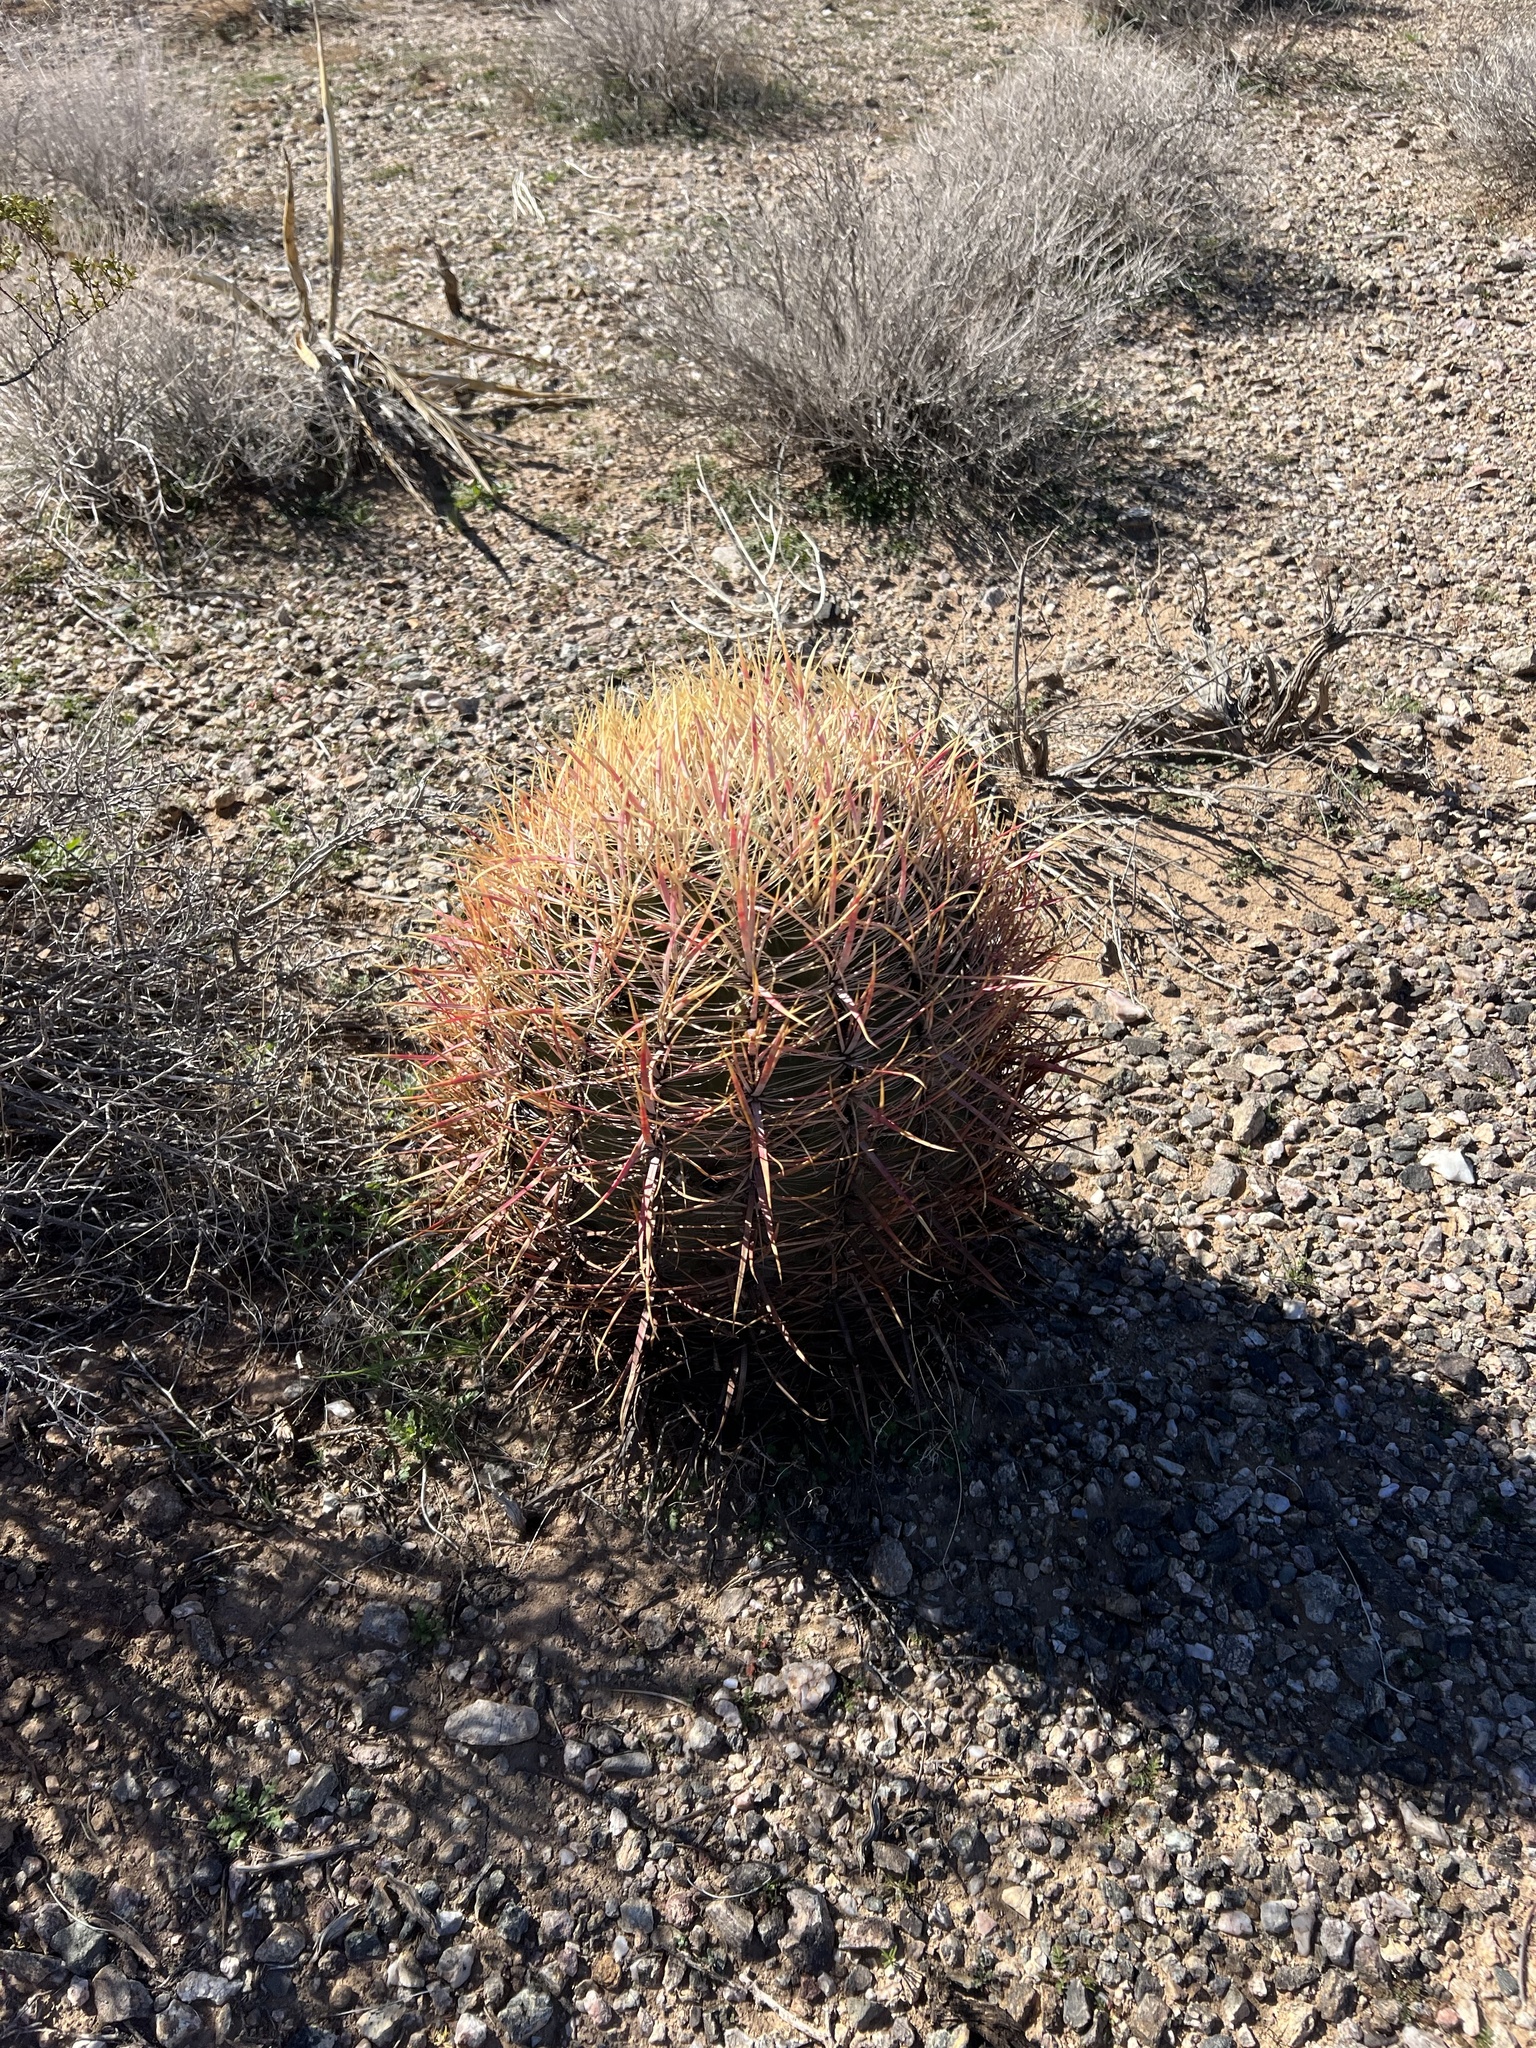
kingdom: Plantae
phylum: Tracheophyta
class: Magnoliopsida
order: Caryophyllales
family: Cactaceae
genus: Ferocactus
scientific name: Ferocactus cylindraceus
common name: California barrel cactus
